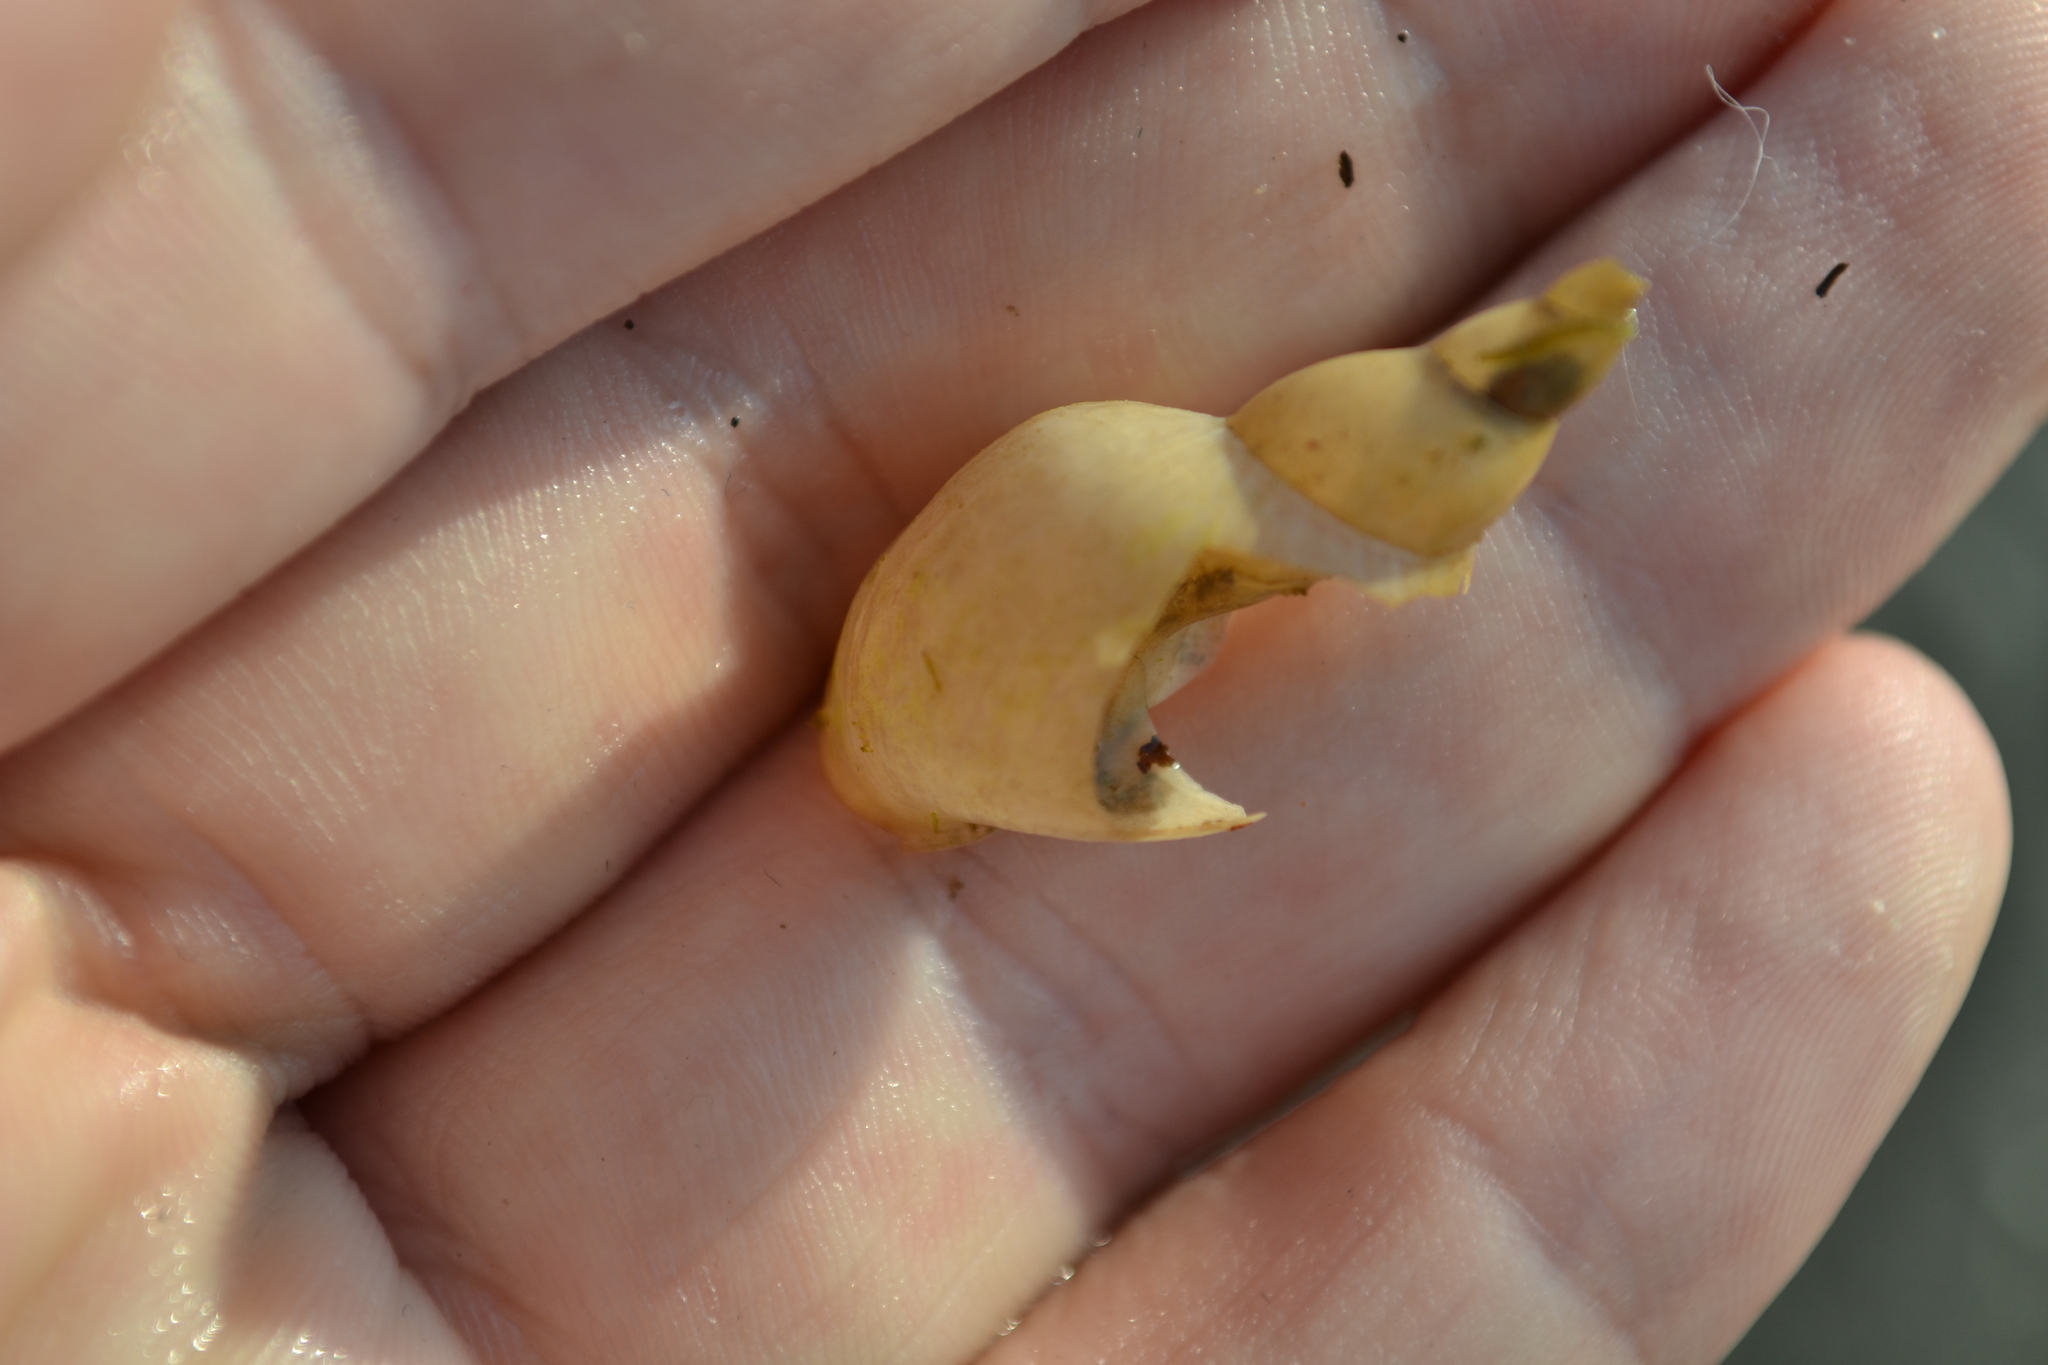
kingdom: Animalia
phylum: Mollusca
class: Gastropoda
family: Lymnaeidae
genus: Lymnaea
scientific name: Lymnaea stagnalis
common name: Great pond snail
